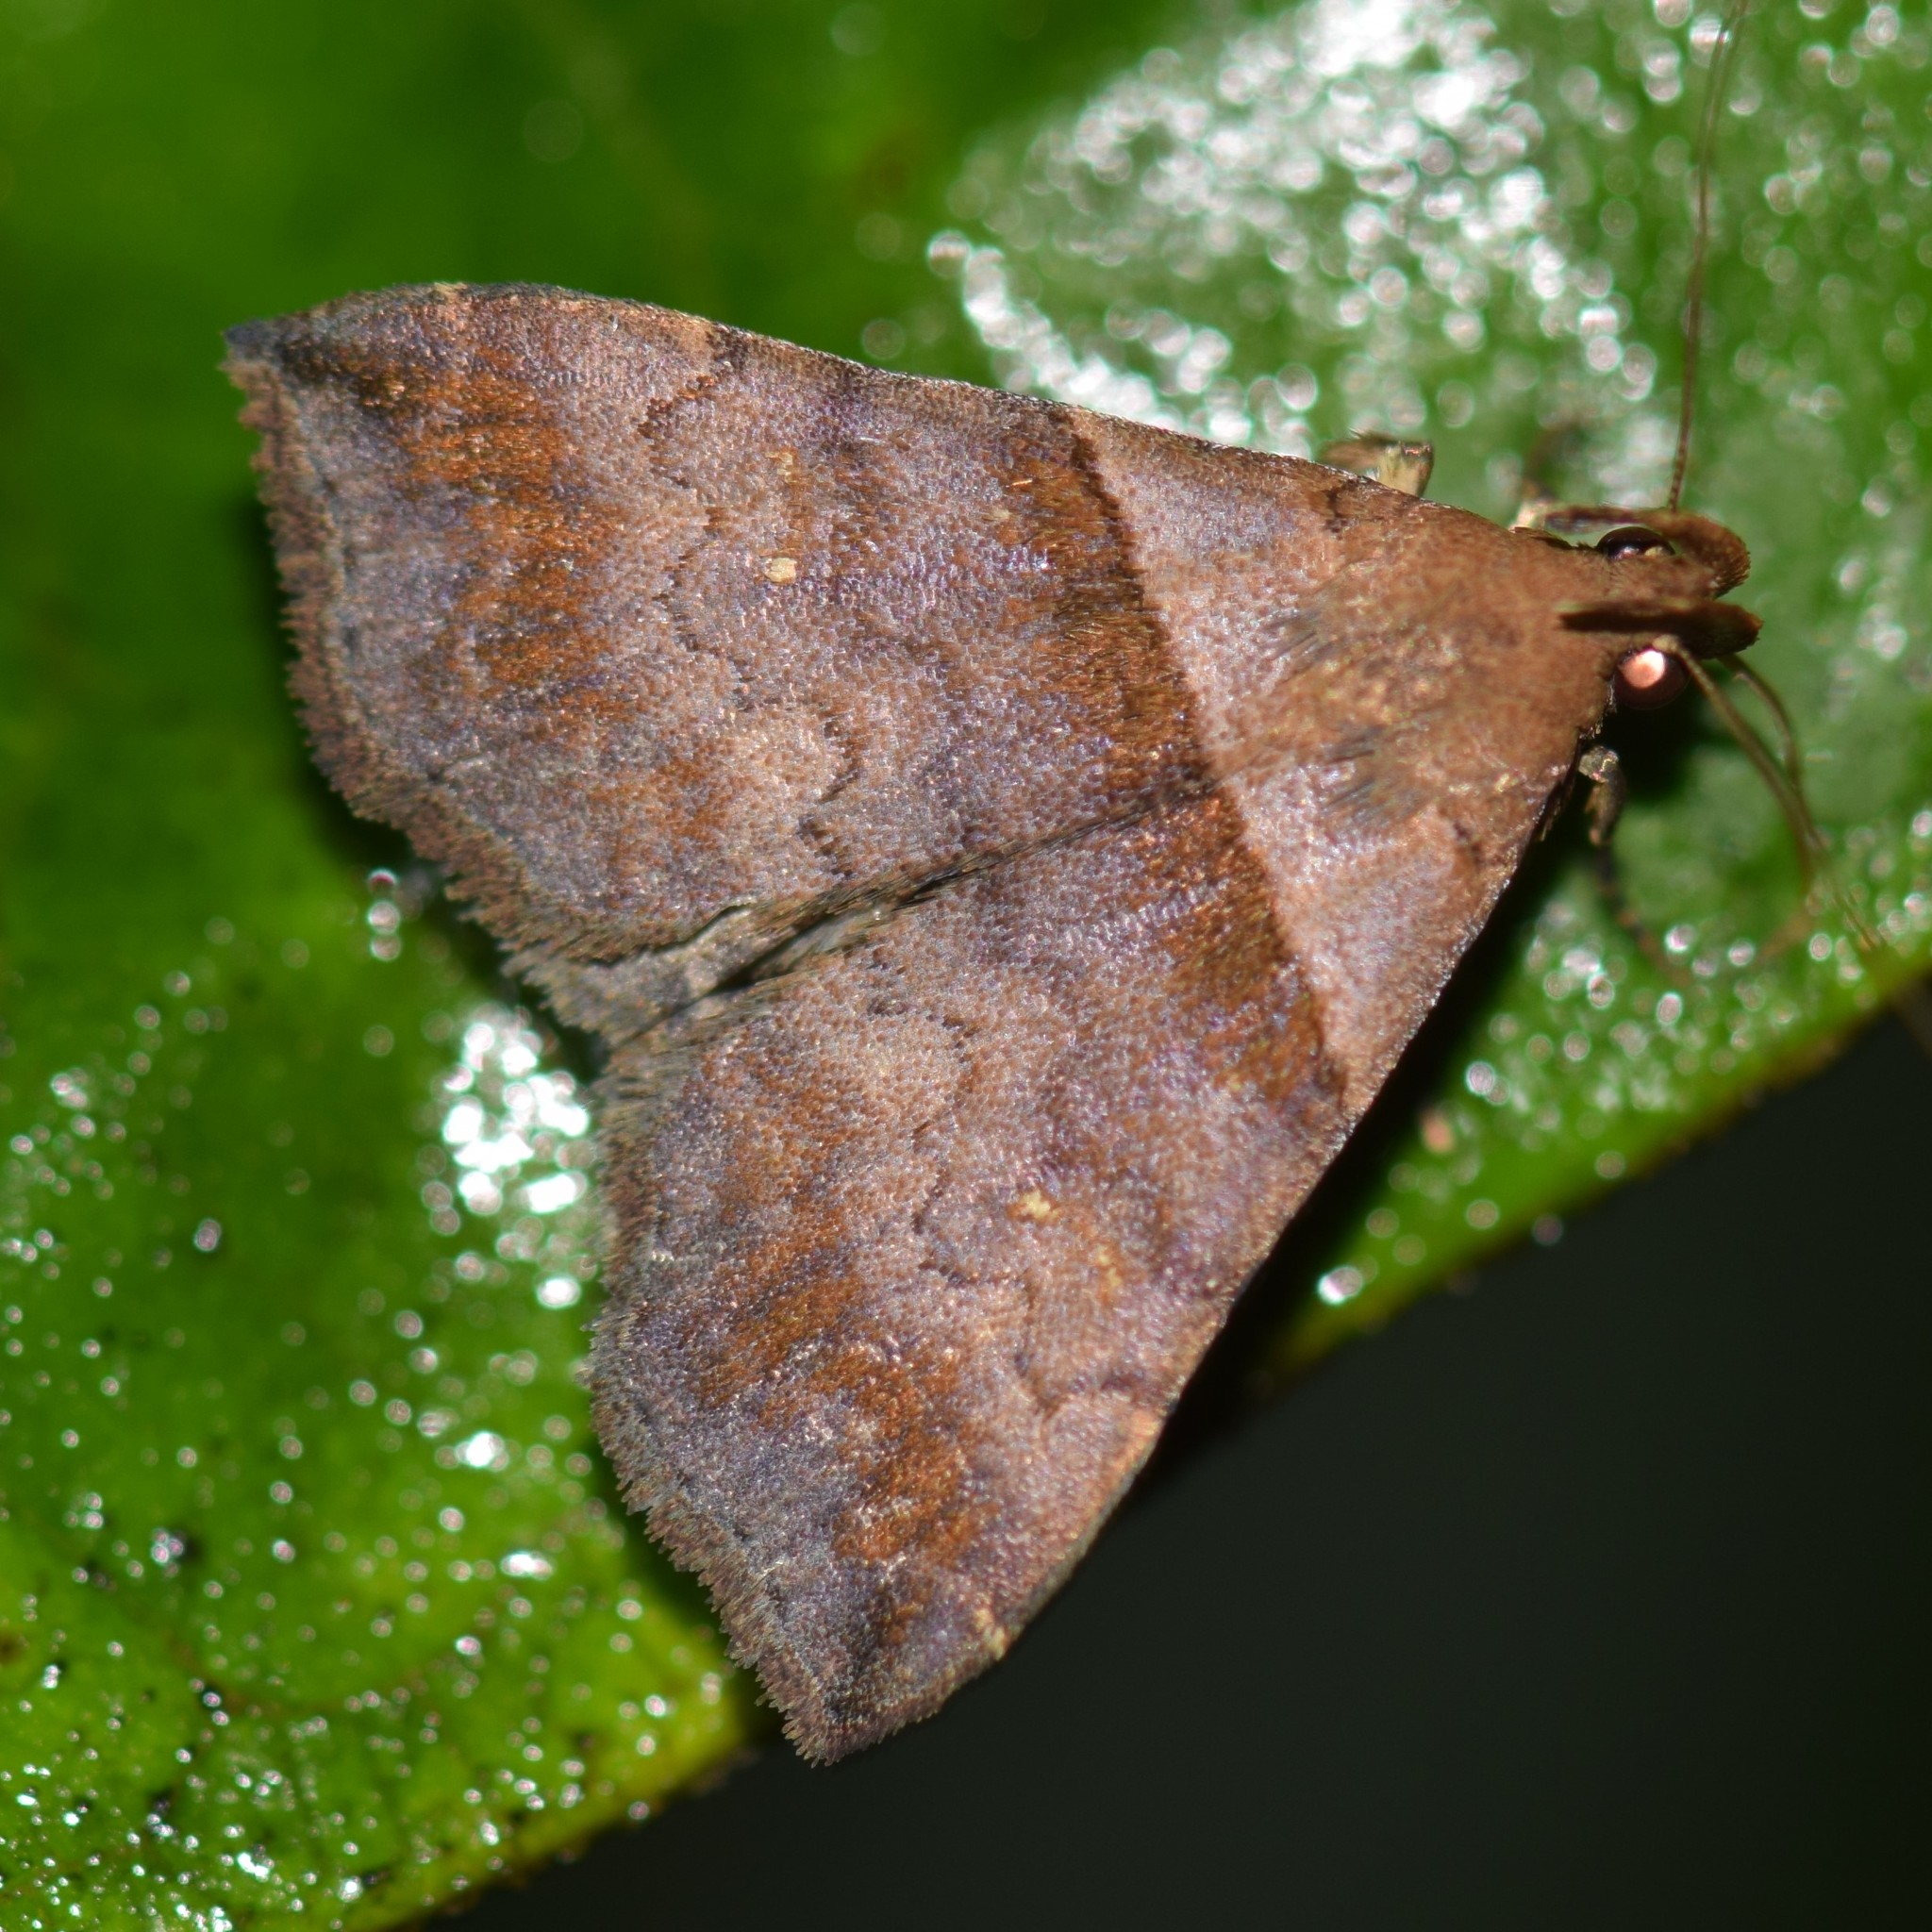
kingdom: Animalia
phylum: Arthropoda
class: Insecta
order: Lepidoptera
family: Erebidae
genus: Lascoria
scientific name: Lascoria ambigualis
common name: Ambiguous moth
